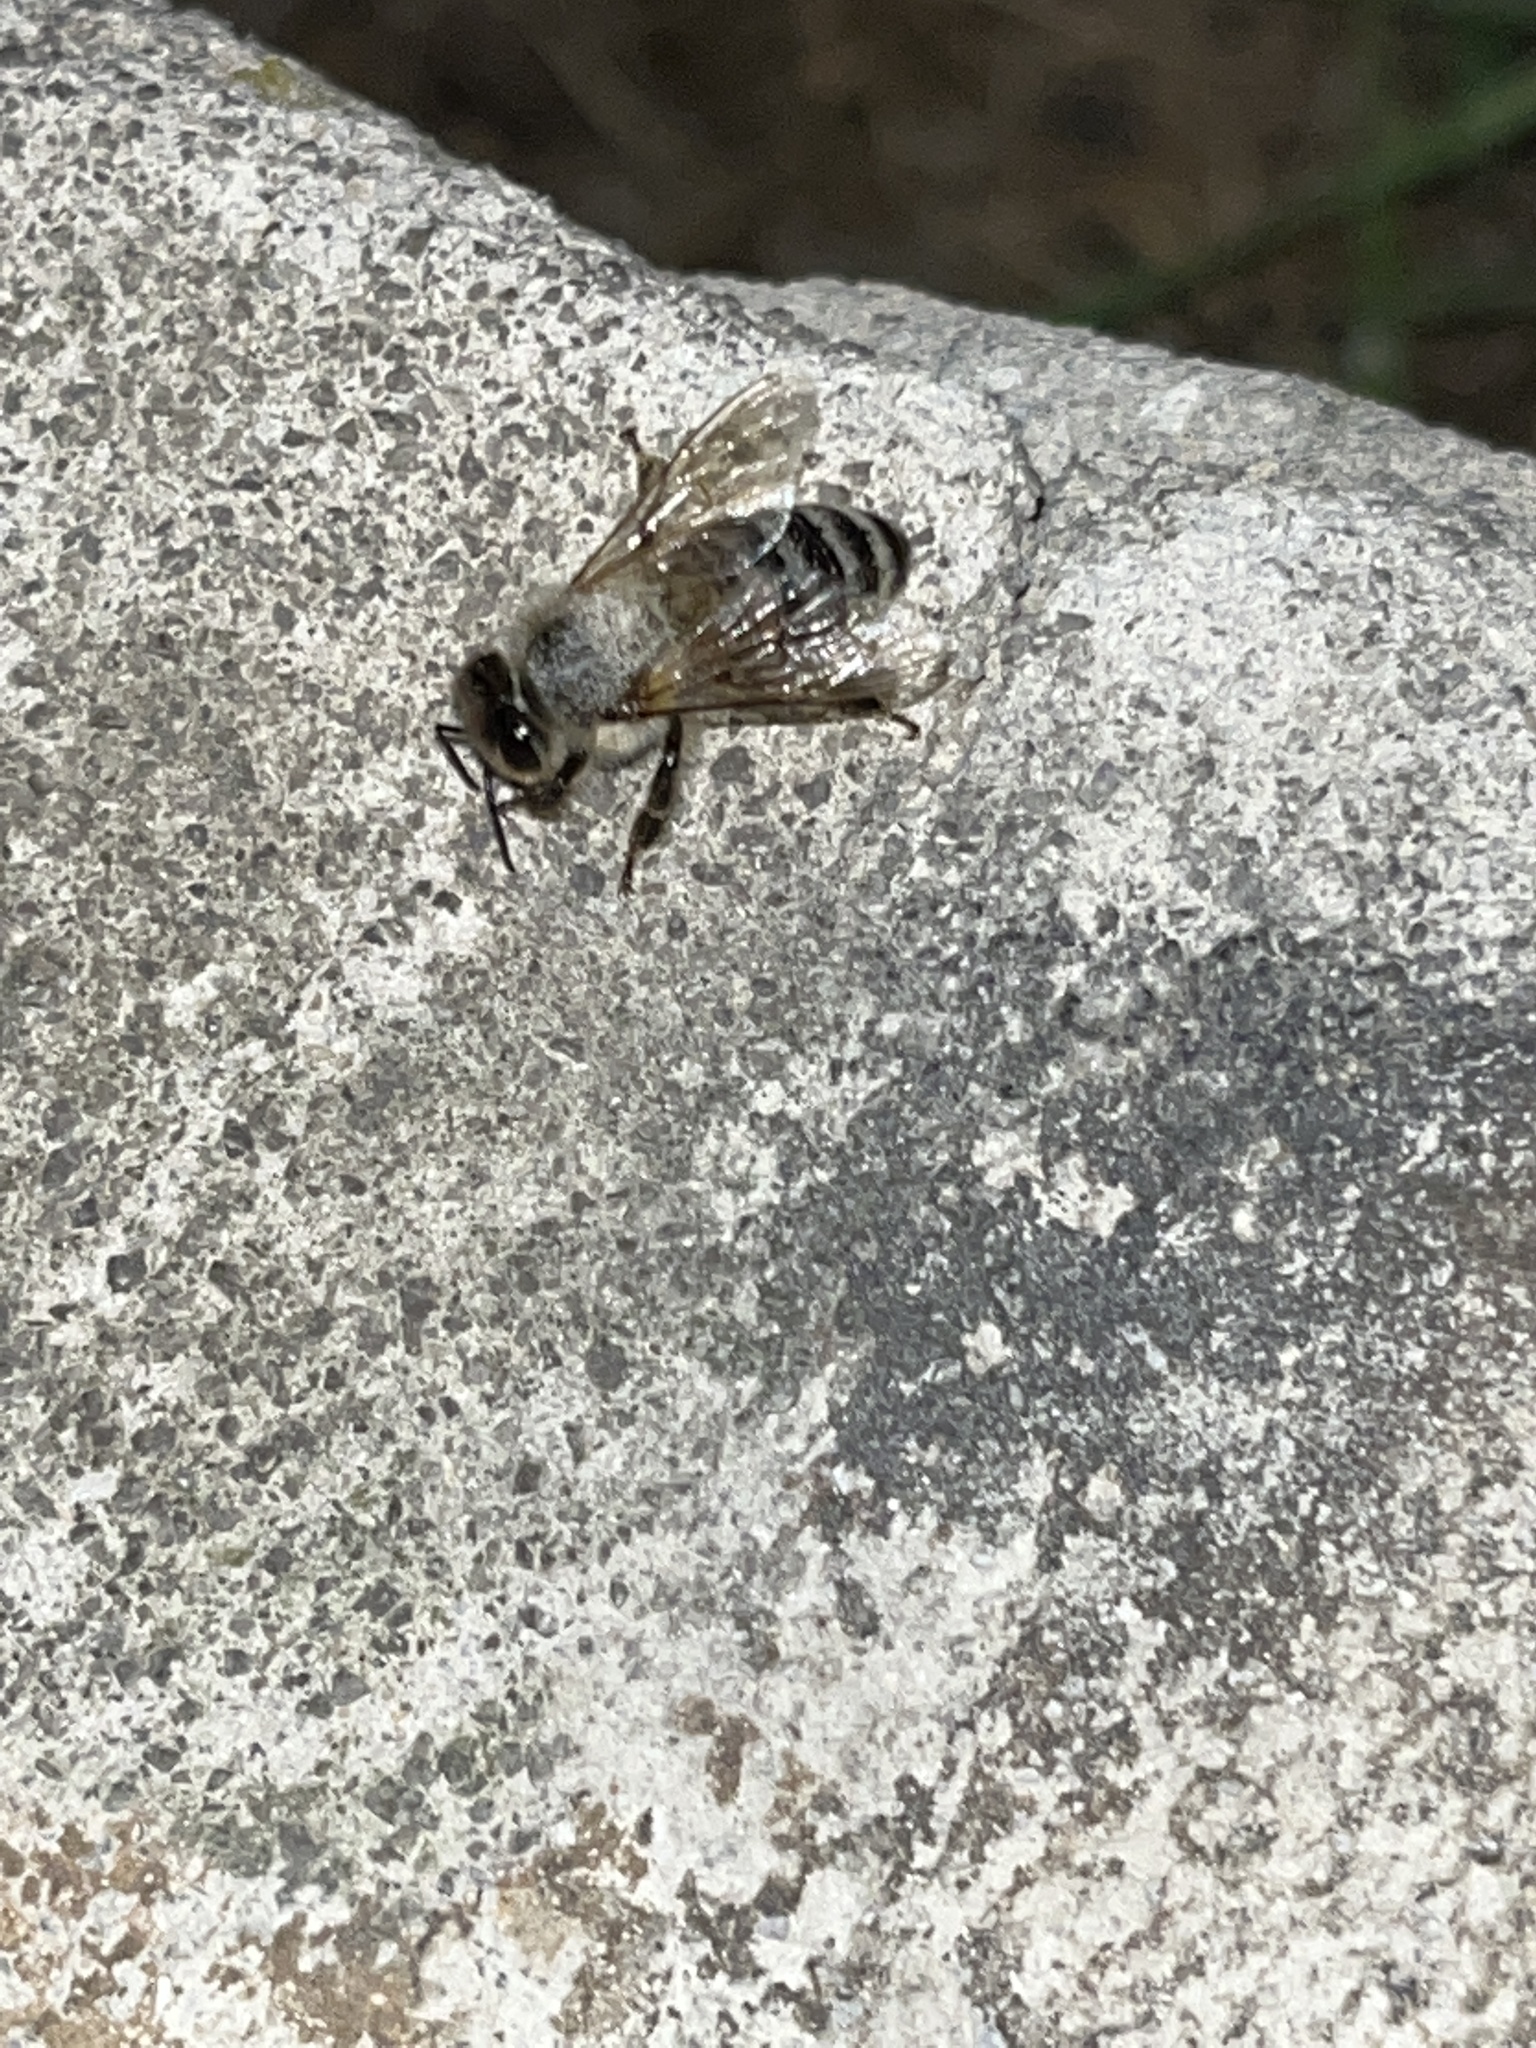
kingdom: Animalia
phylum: Arthropoda
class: Insecta
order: Hymenoptera
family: Apidae
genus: Apis
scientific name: Apis mellifera
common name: Honey bee
